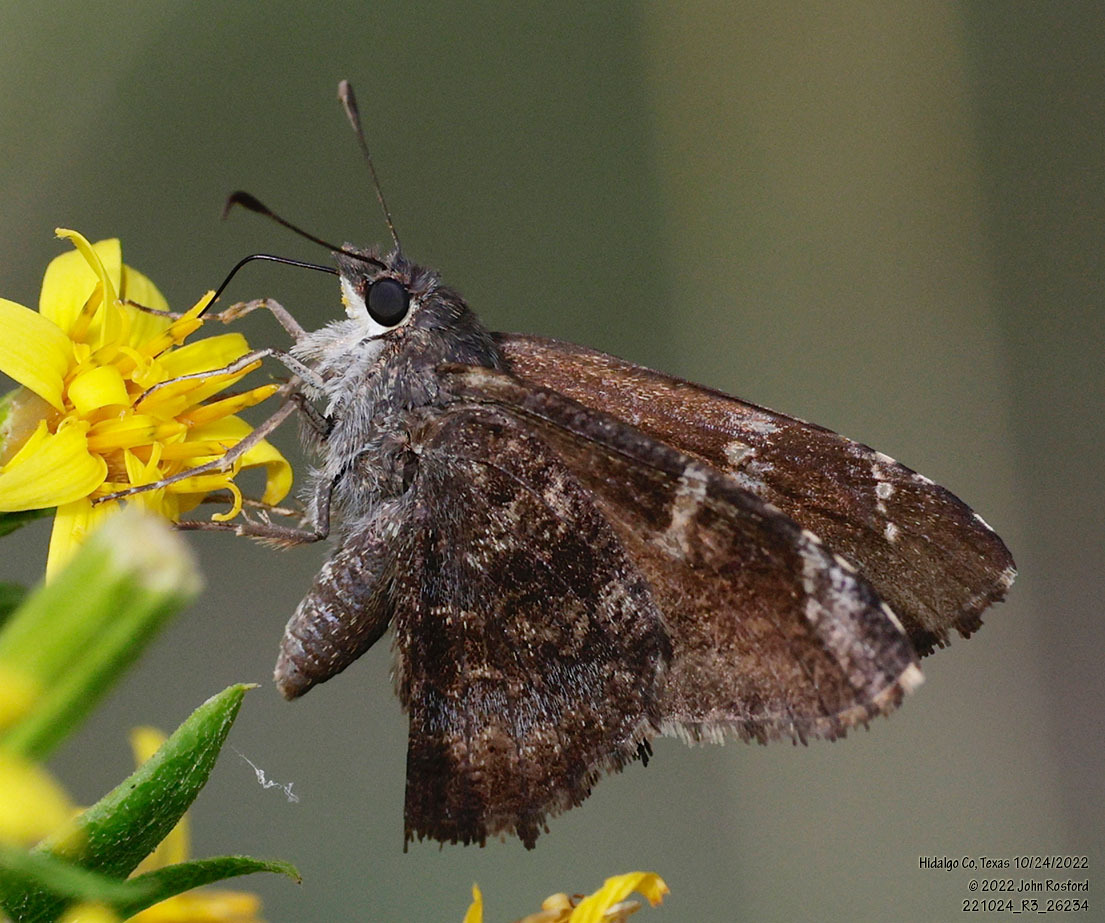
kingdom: Animalia
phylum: Arthropoda
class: Insecta
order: Lepidoptera
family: Hesperiidae
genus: Caicella
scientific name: Caicella calchas
